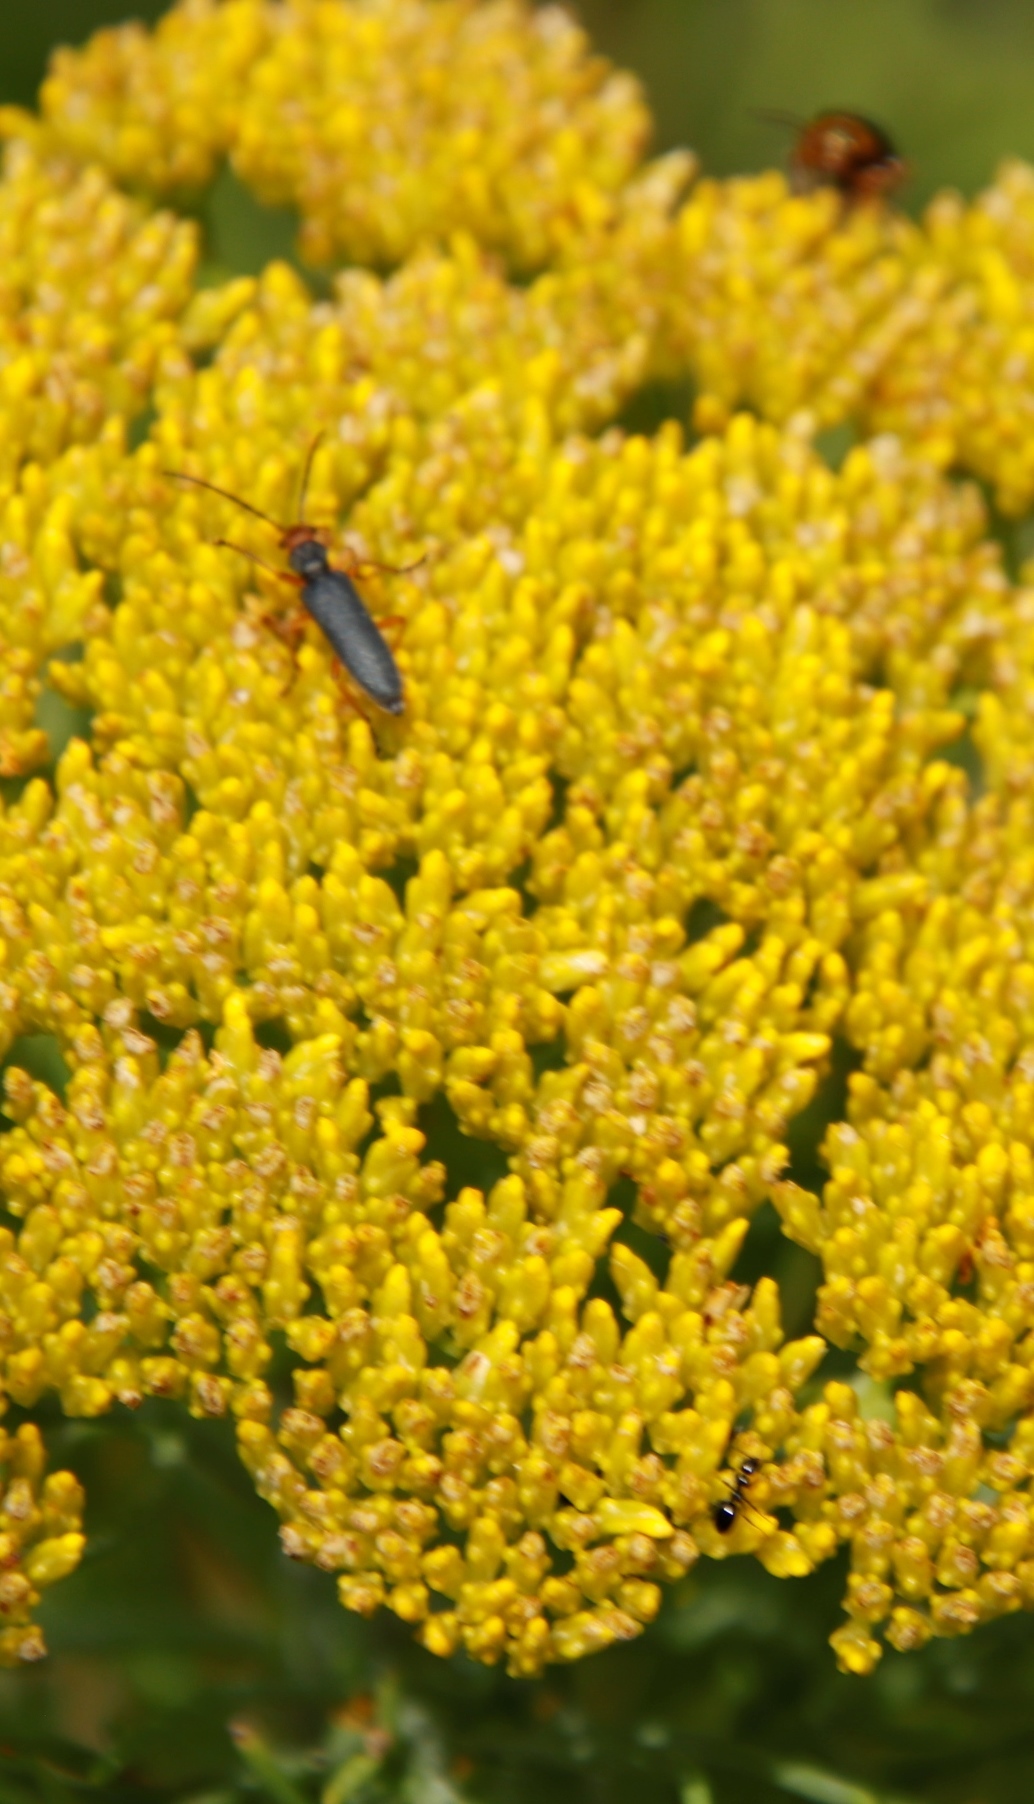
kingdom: Animalia
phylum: Arthropoda
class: Insecta
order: Coleoptera
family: Oedemeridae
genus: Melananthia
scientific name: Melananthia
